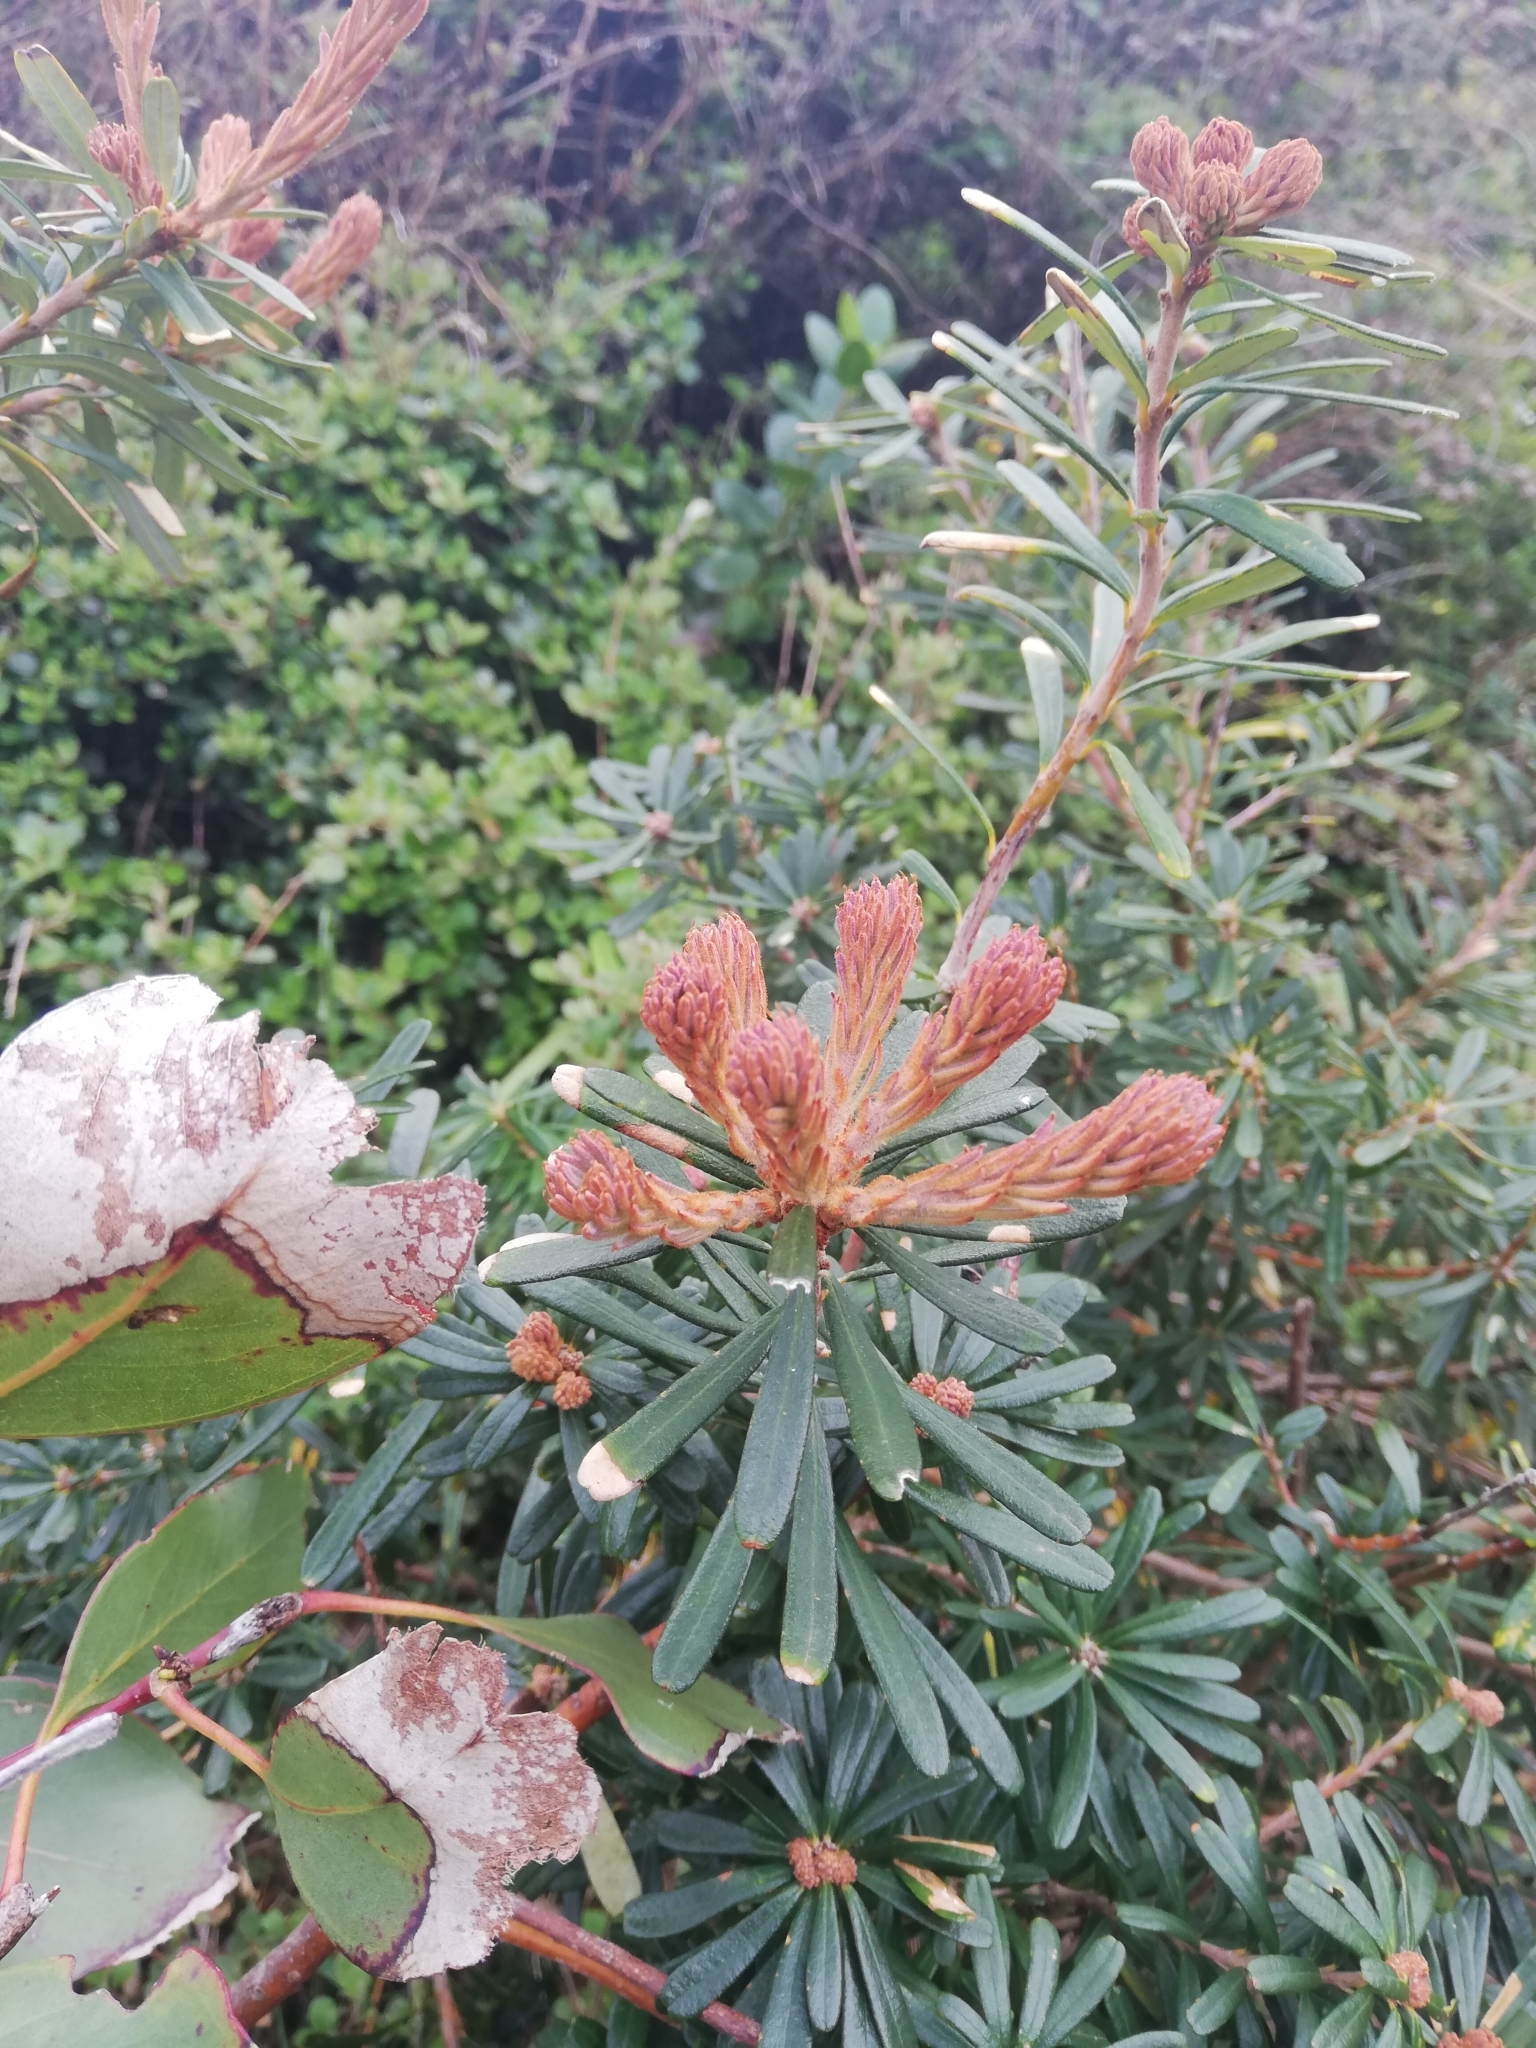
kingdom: Plantae
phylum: Tracheophyta
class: Magnoliopsida
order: Proteales
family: Proteaceae
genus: Banksia
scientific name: Banksia marginata
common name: Silver banksia
